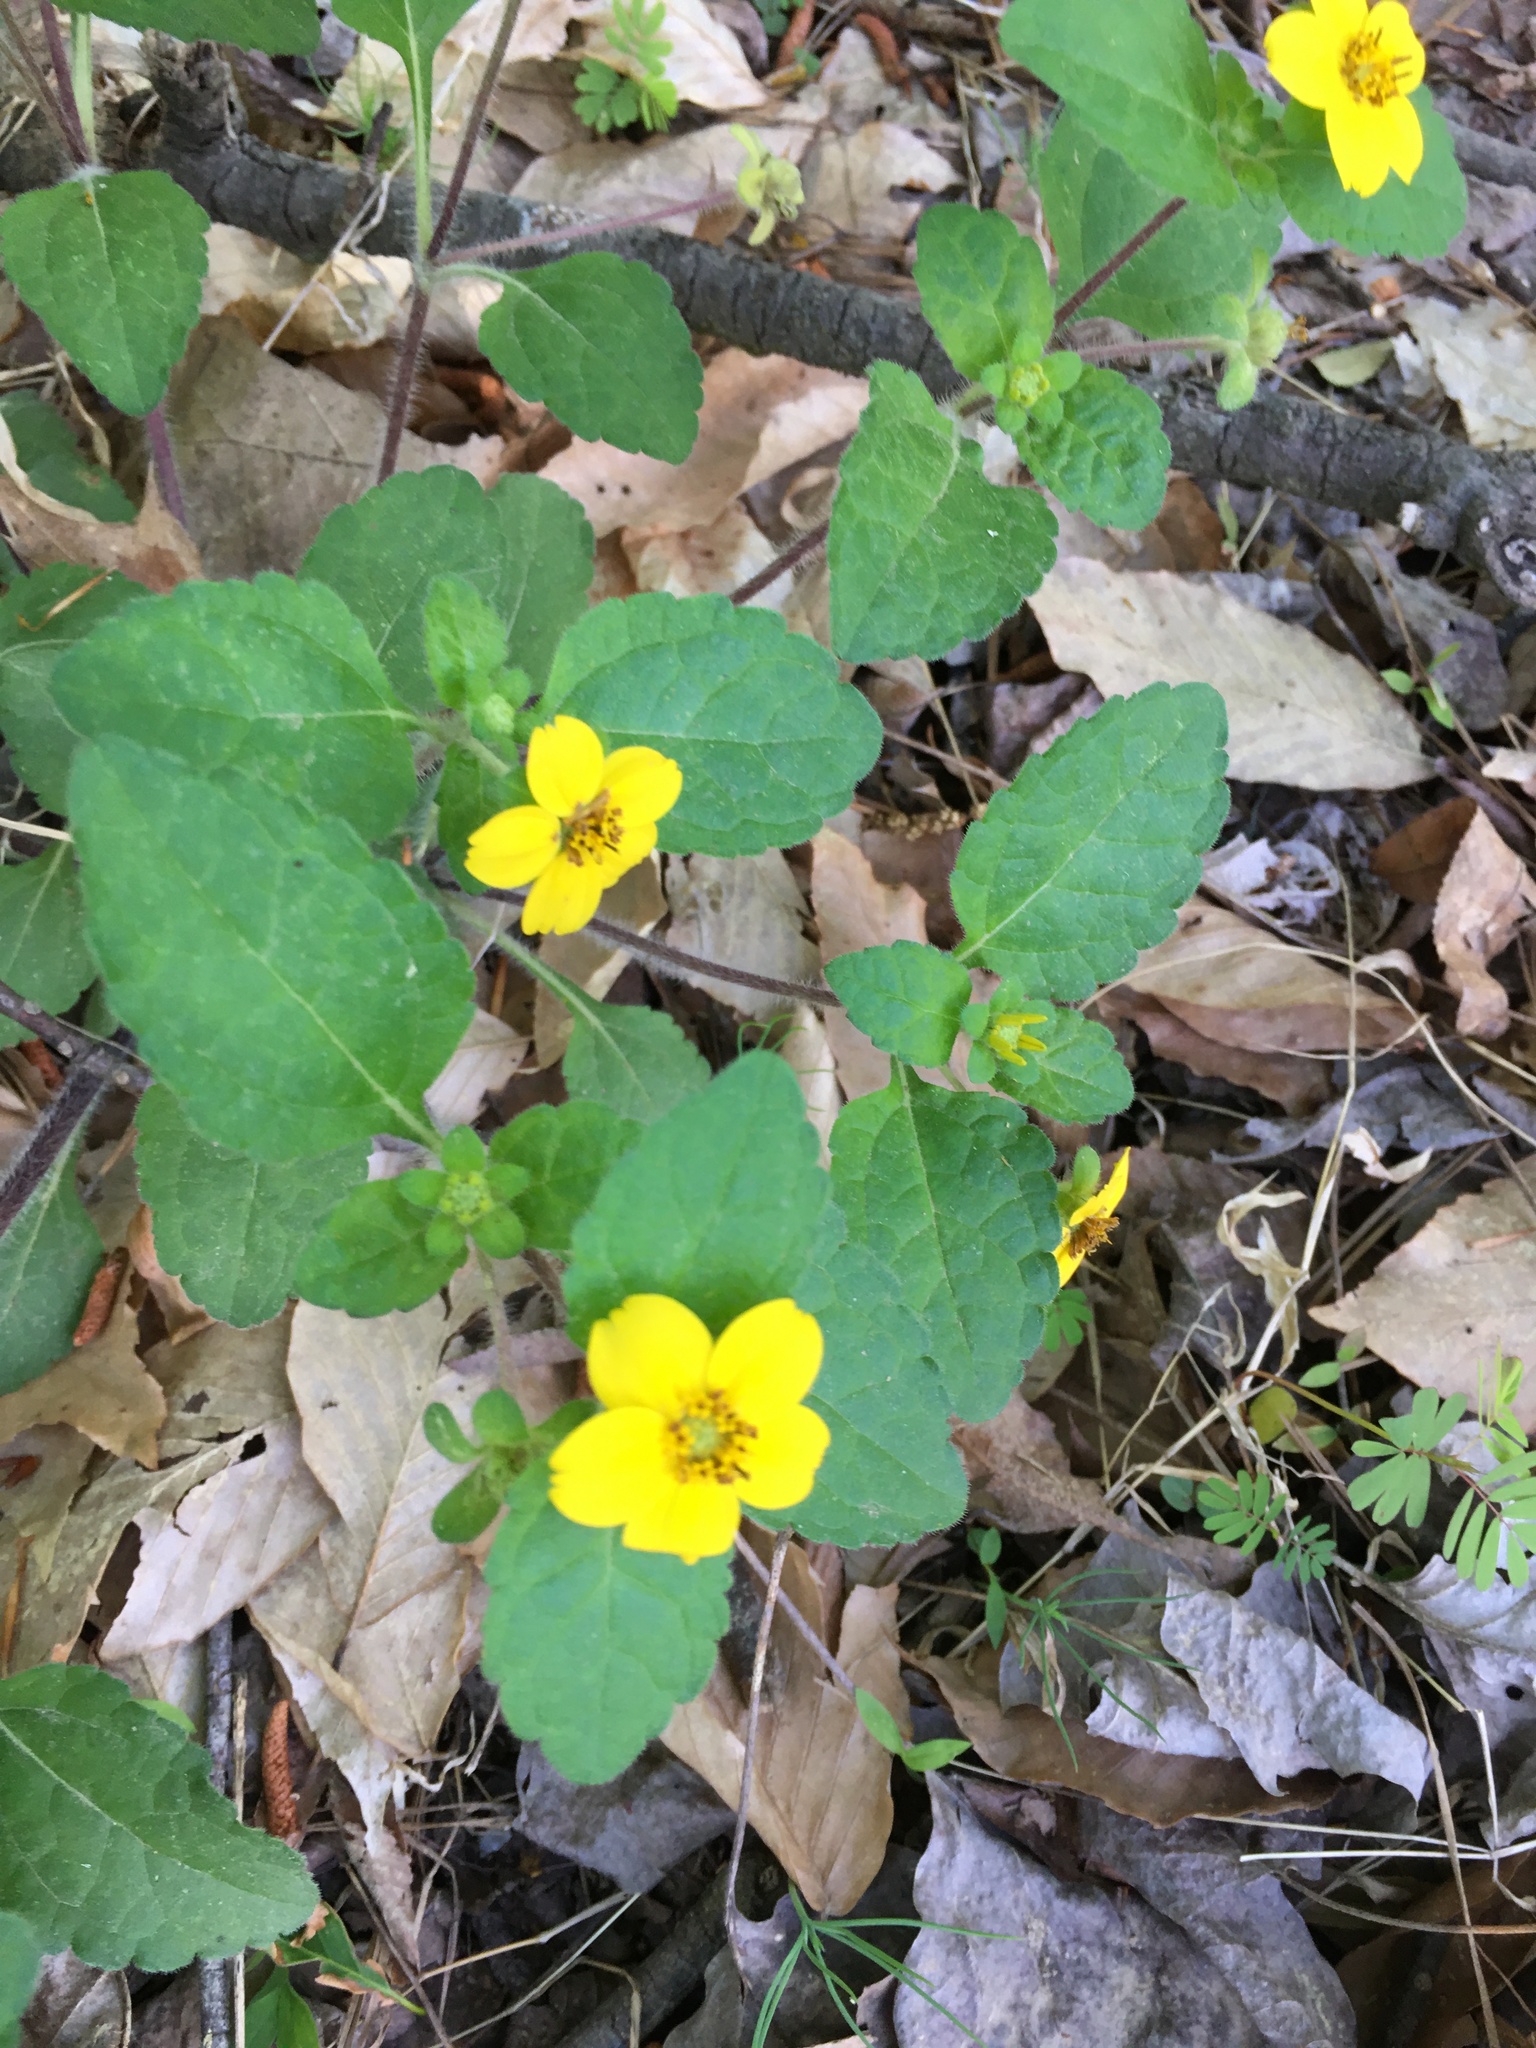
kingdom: Plantae
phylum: Tracheophyta
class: Magnoliopsida
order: Asterales
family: Asteraceae
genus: Chrysogonum
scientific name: Chrysogonum virginianum
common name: Golden-knee
